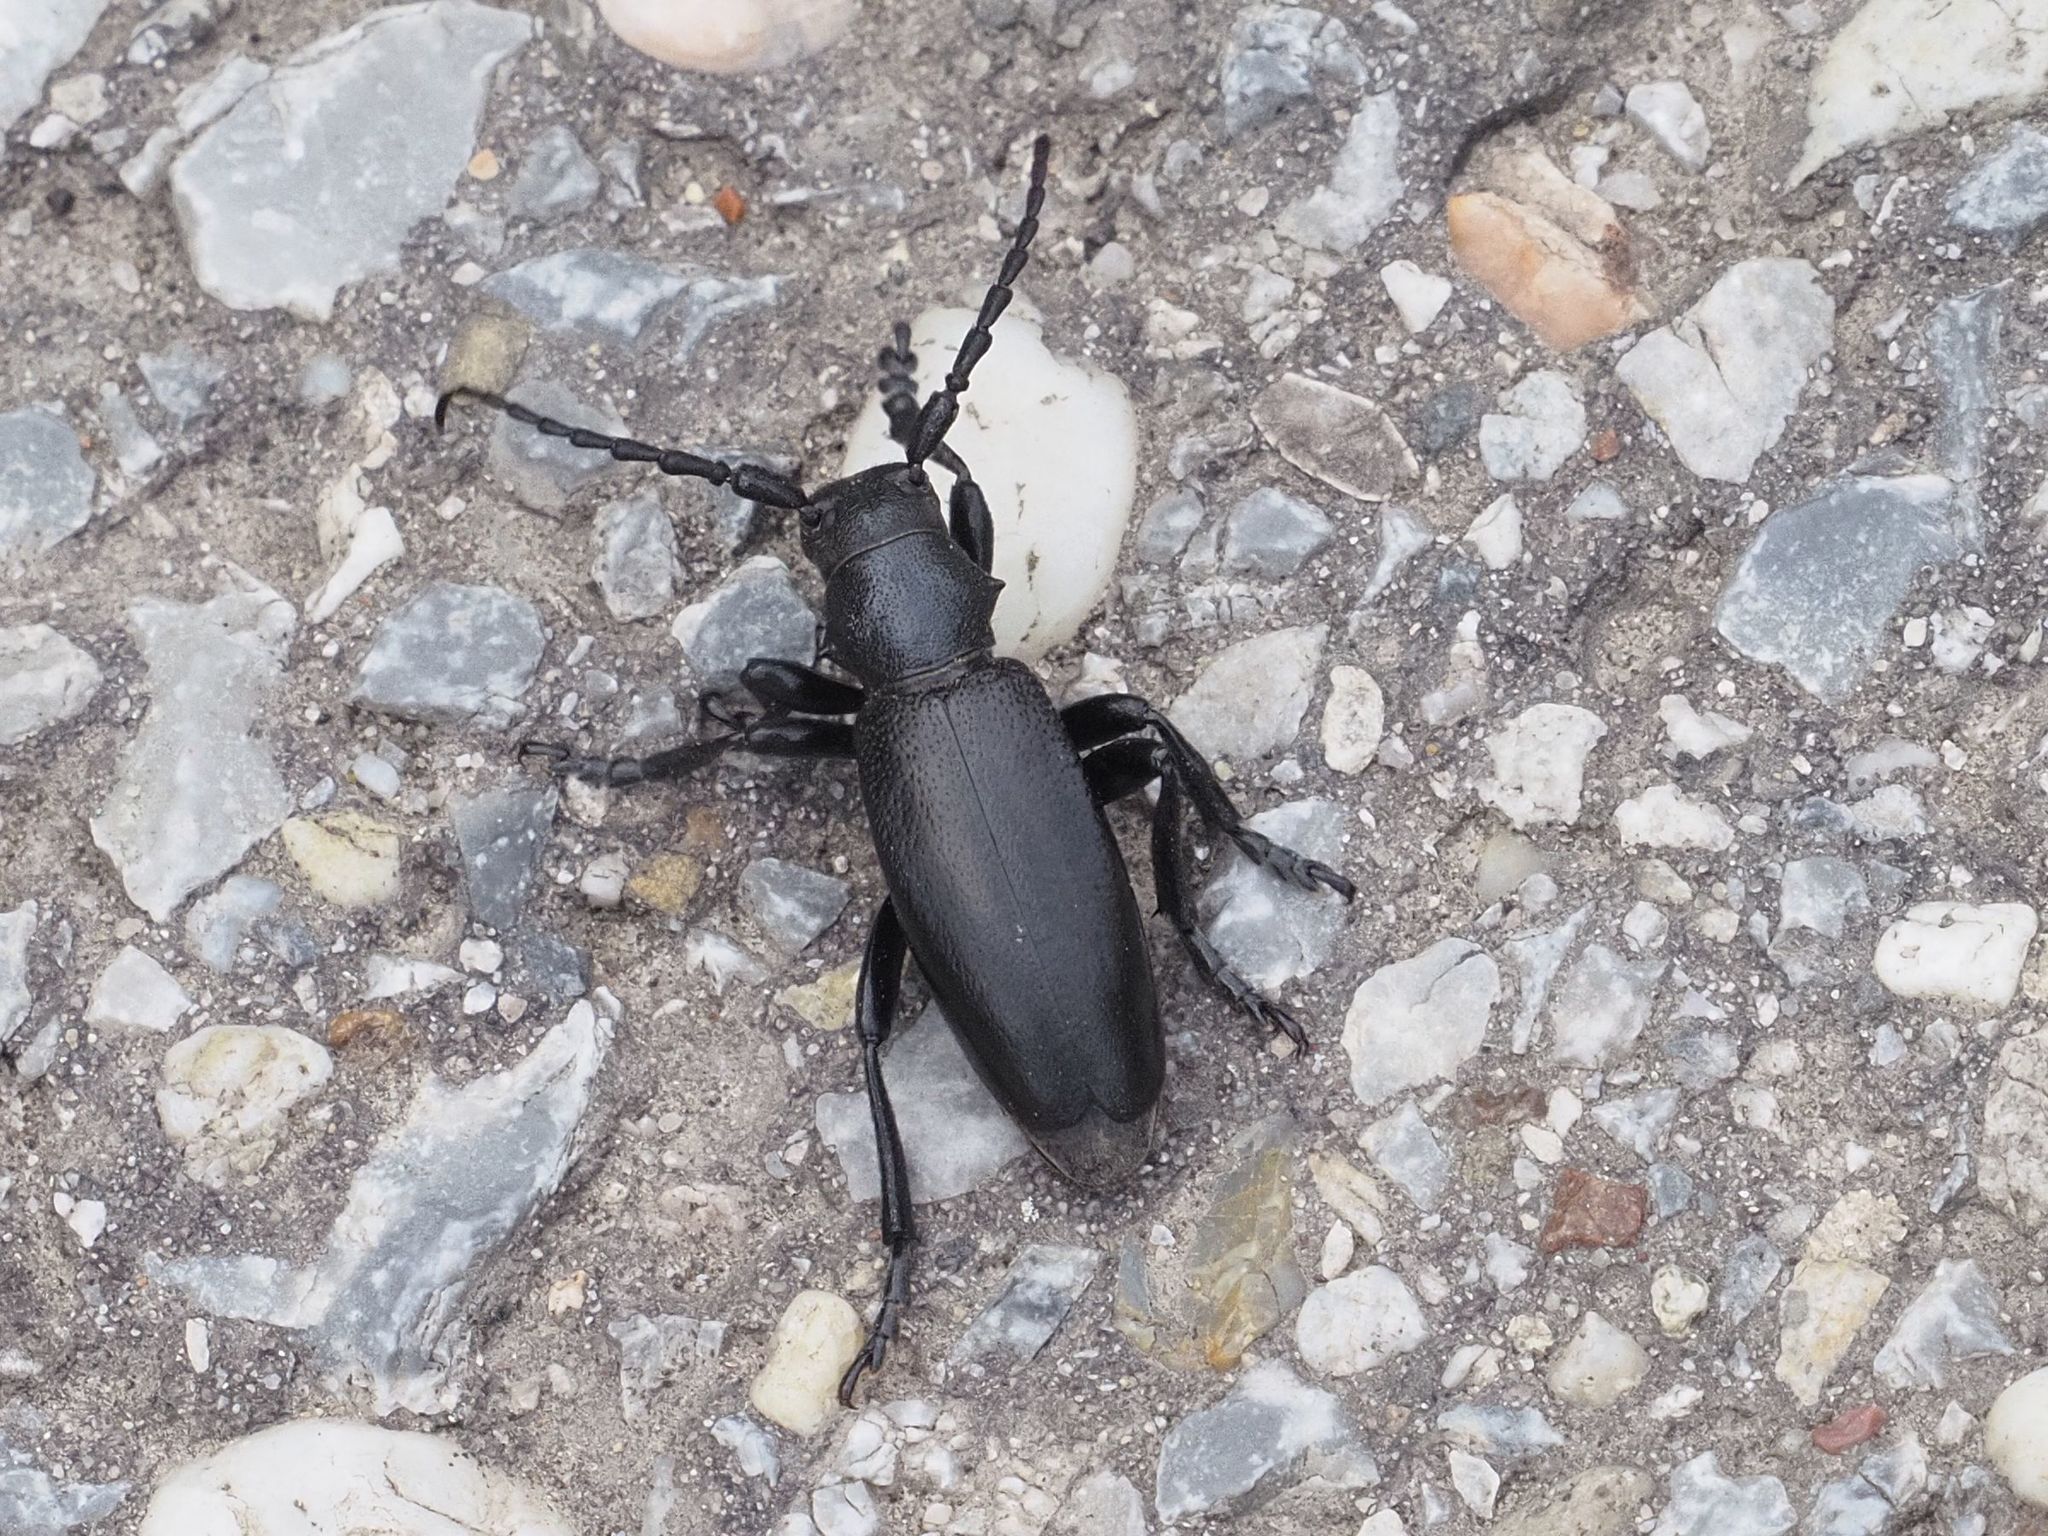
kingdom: Animalia
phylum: Arthropoda
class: Insecta
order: Coleoptera
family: Cerambycidae
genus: Dorcadion
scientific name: Dorcadion aethiops
